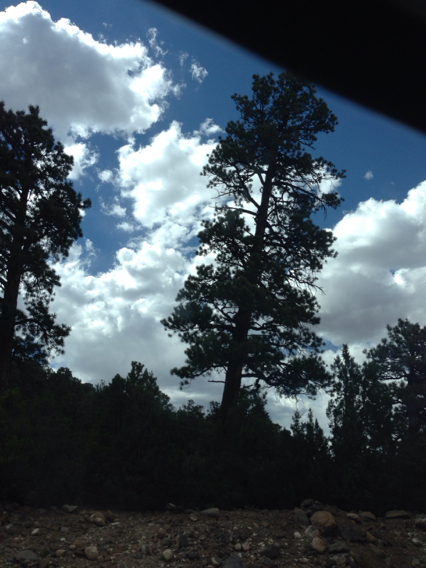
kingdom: Plantae
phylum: Tracheophyta
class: Pinopsida
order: Pinales
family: Pinaceae
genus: Pinus
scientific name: Pinus ponderosa
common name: Western yellow-pine
